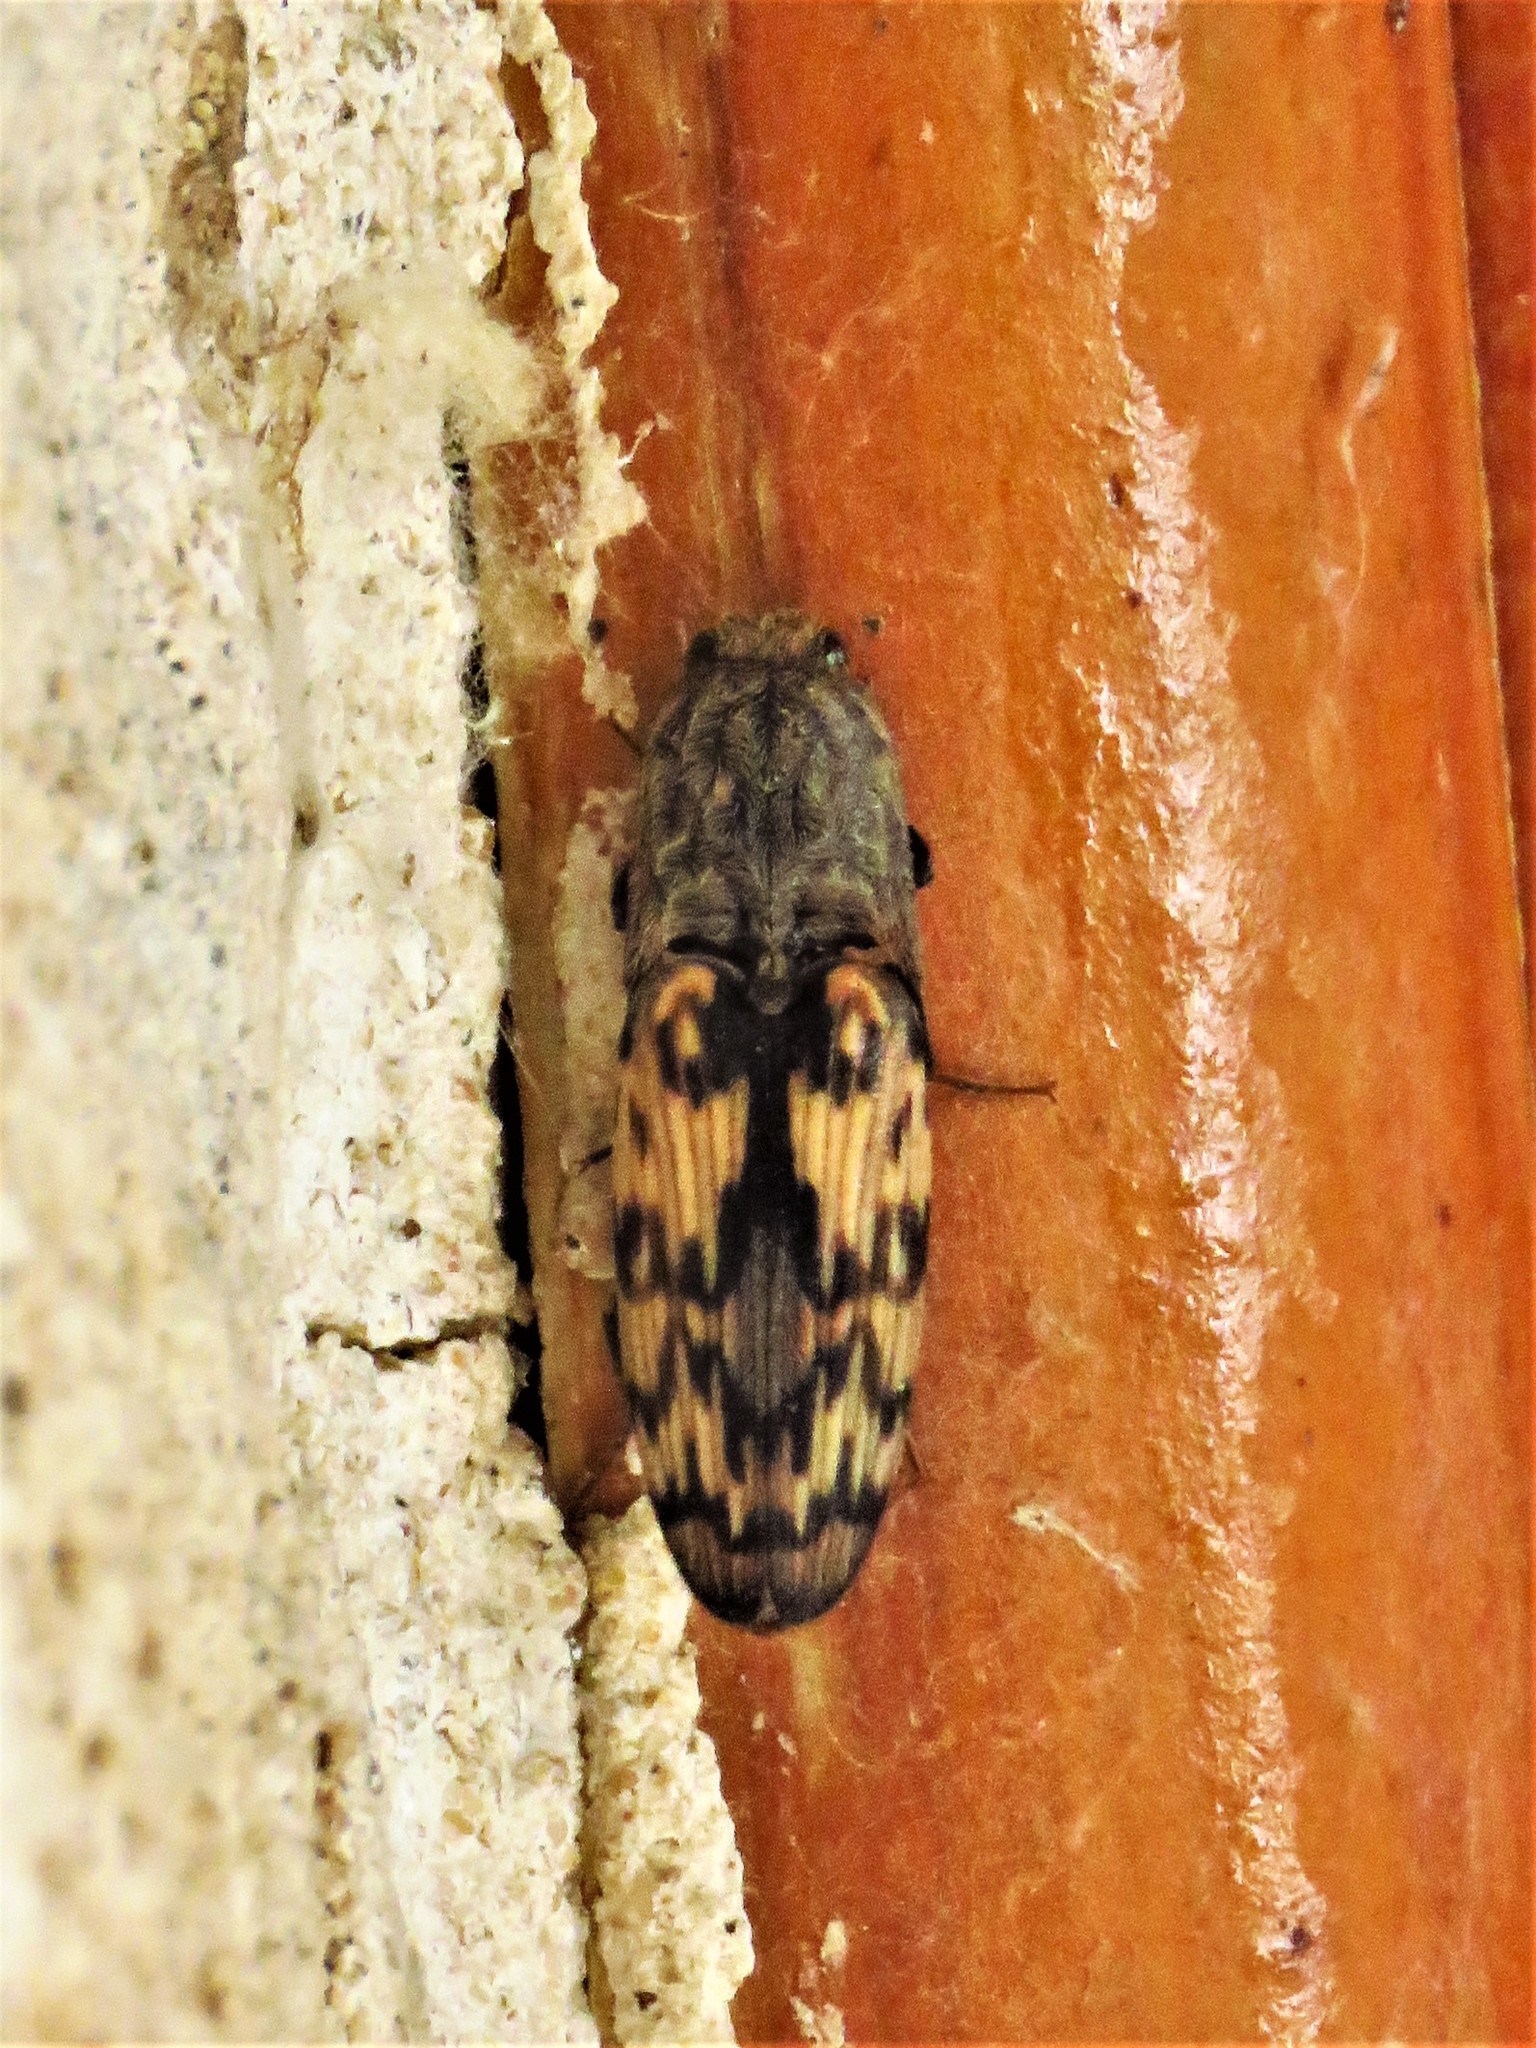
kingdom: Animalia
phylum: Arthropoda
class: Insecta
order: Coleoptera
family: Elateridae
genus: Pherhimius
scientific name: Pherhimius fascicularis
